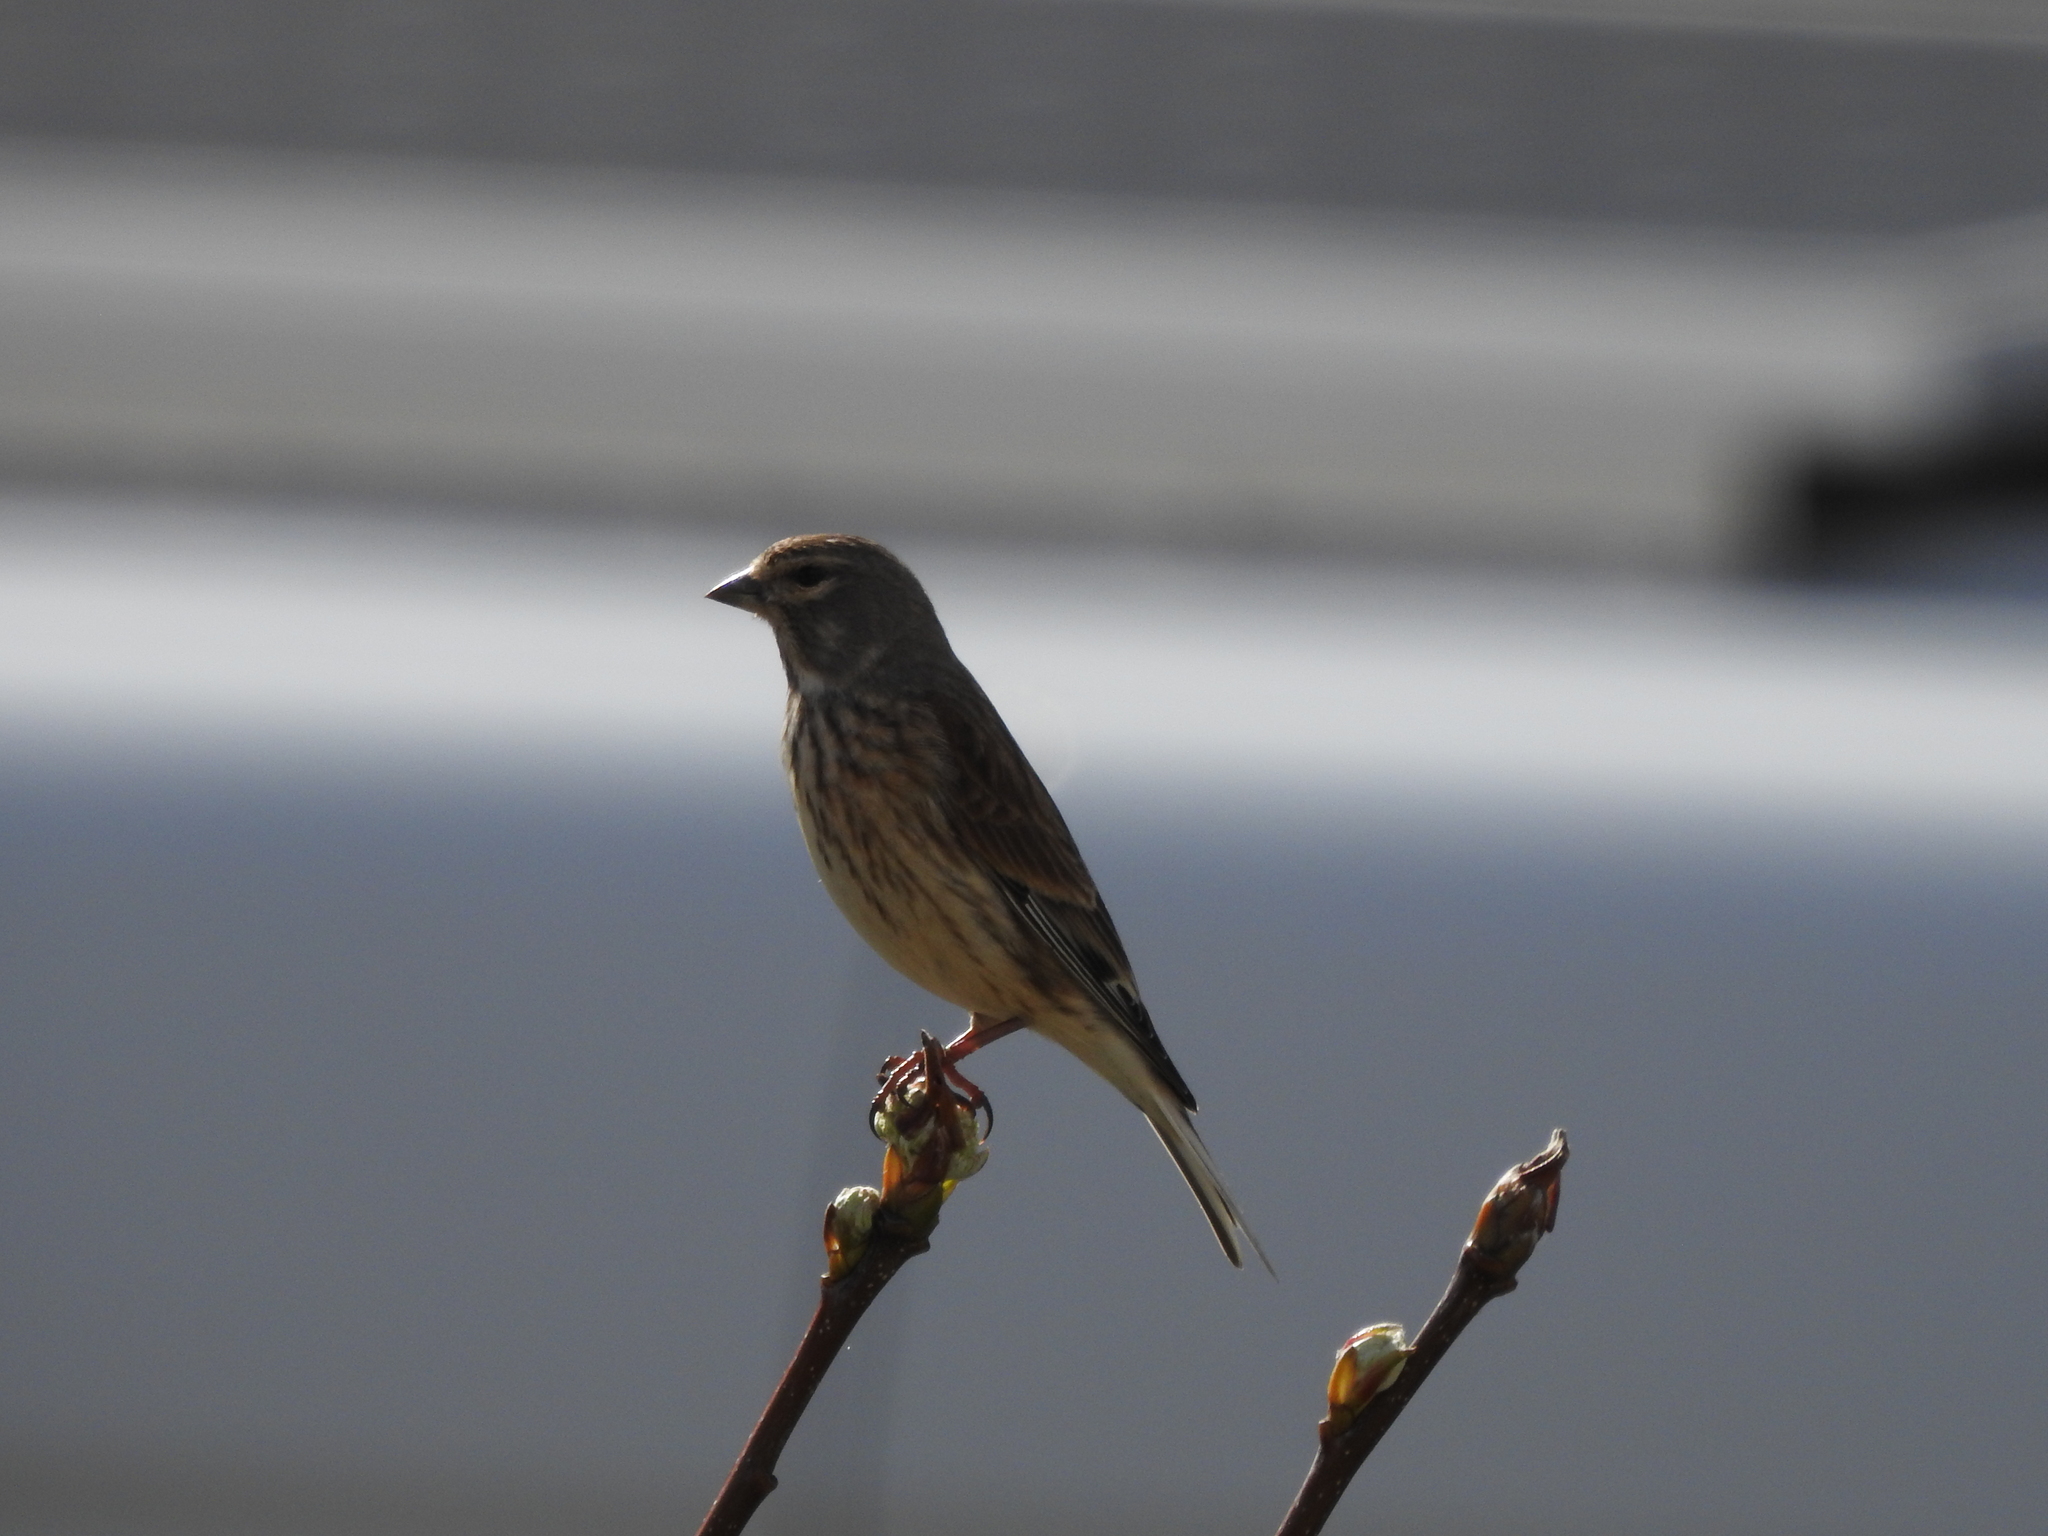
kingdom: Animalia
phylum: Chordata
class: Aves
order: Passeriformes
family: Fringillidae
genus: Linaria
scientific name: Linaria cannabina
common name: Common linnet
